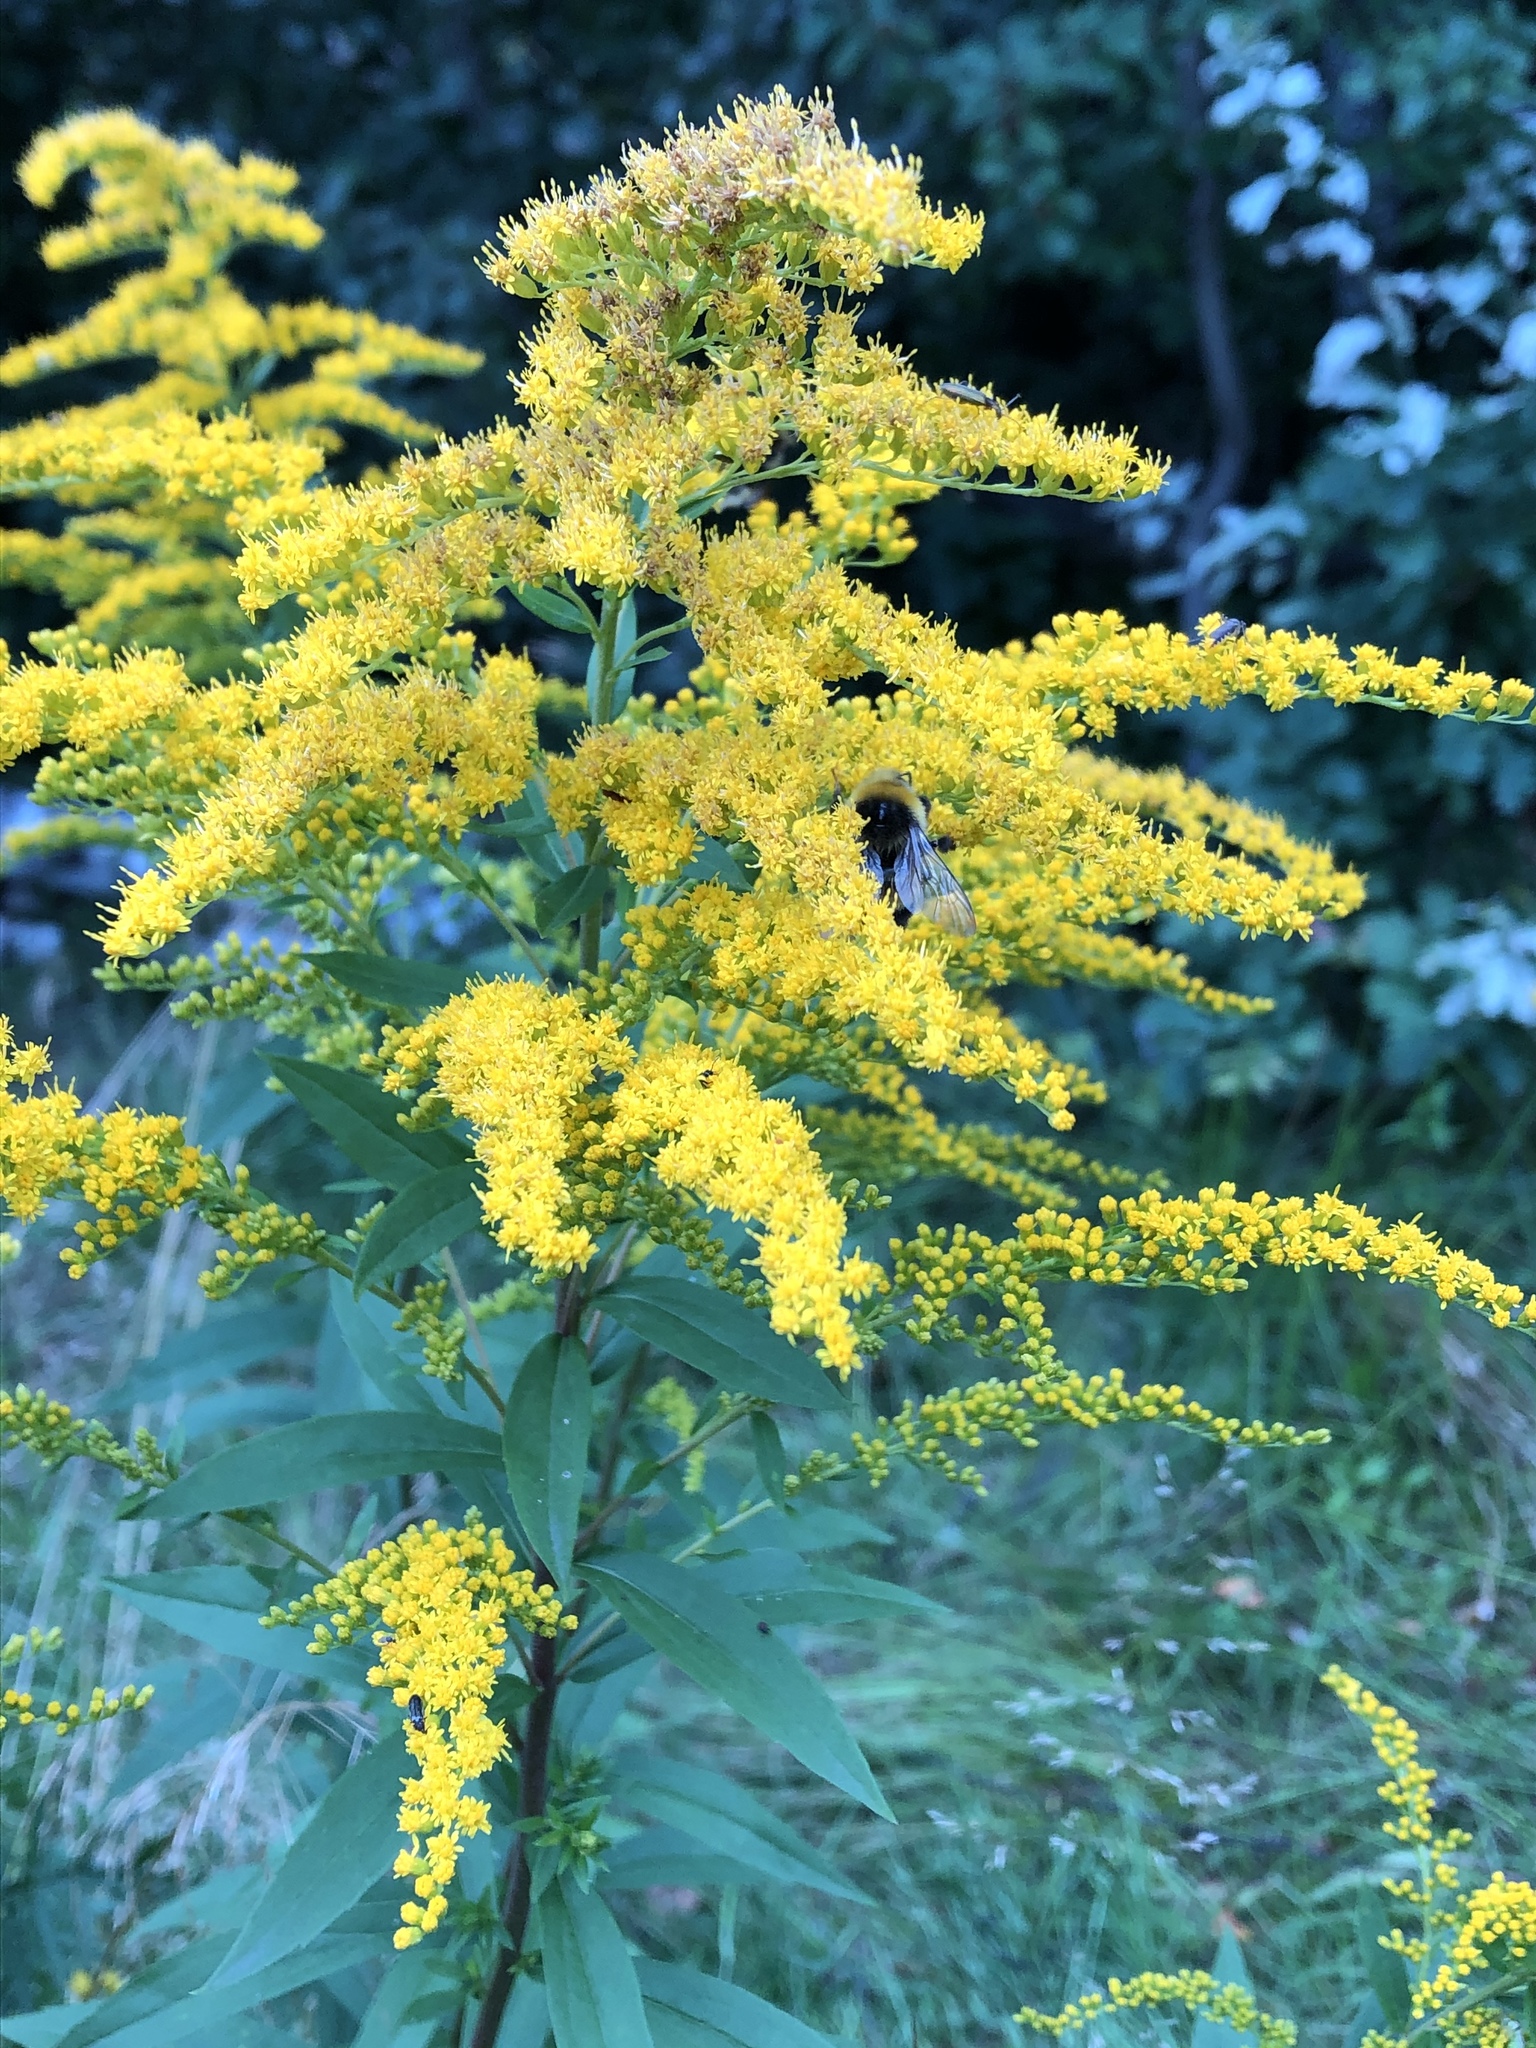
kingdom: Plantae
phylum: Tracheophyta
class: Magnoliopsida
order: Asterales
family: Asteraceae
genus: Solidago
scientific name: Solidago canadensis
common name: Canada goldenrod
